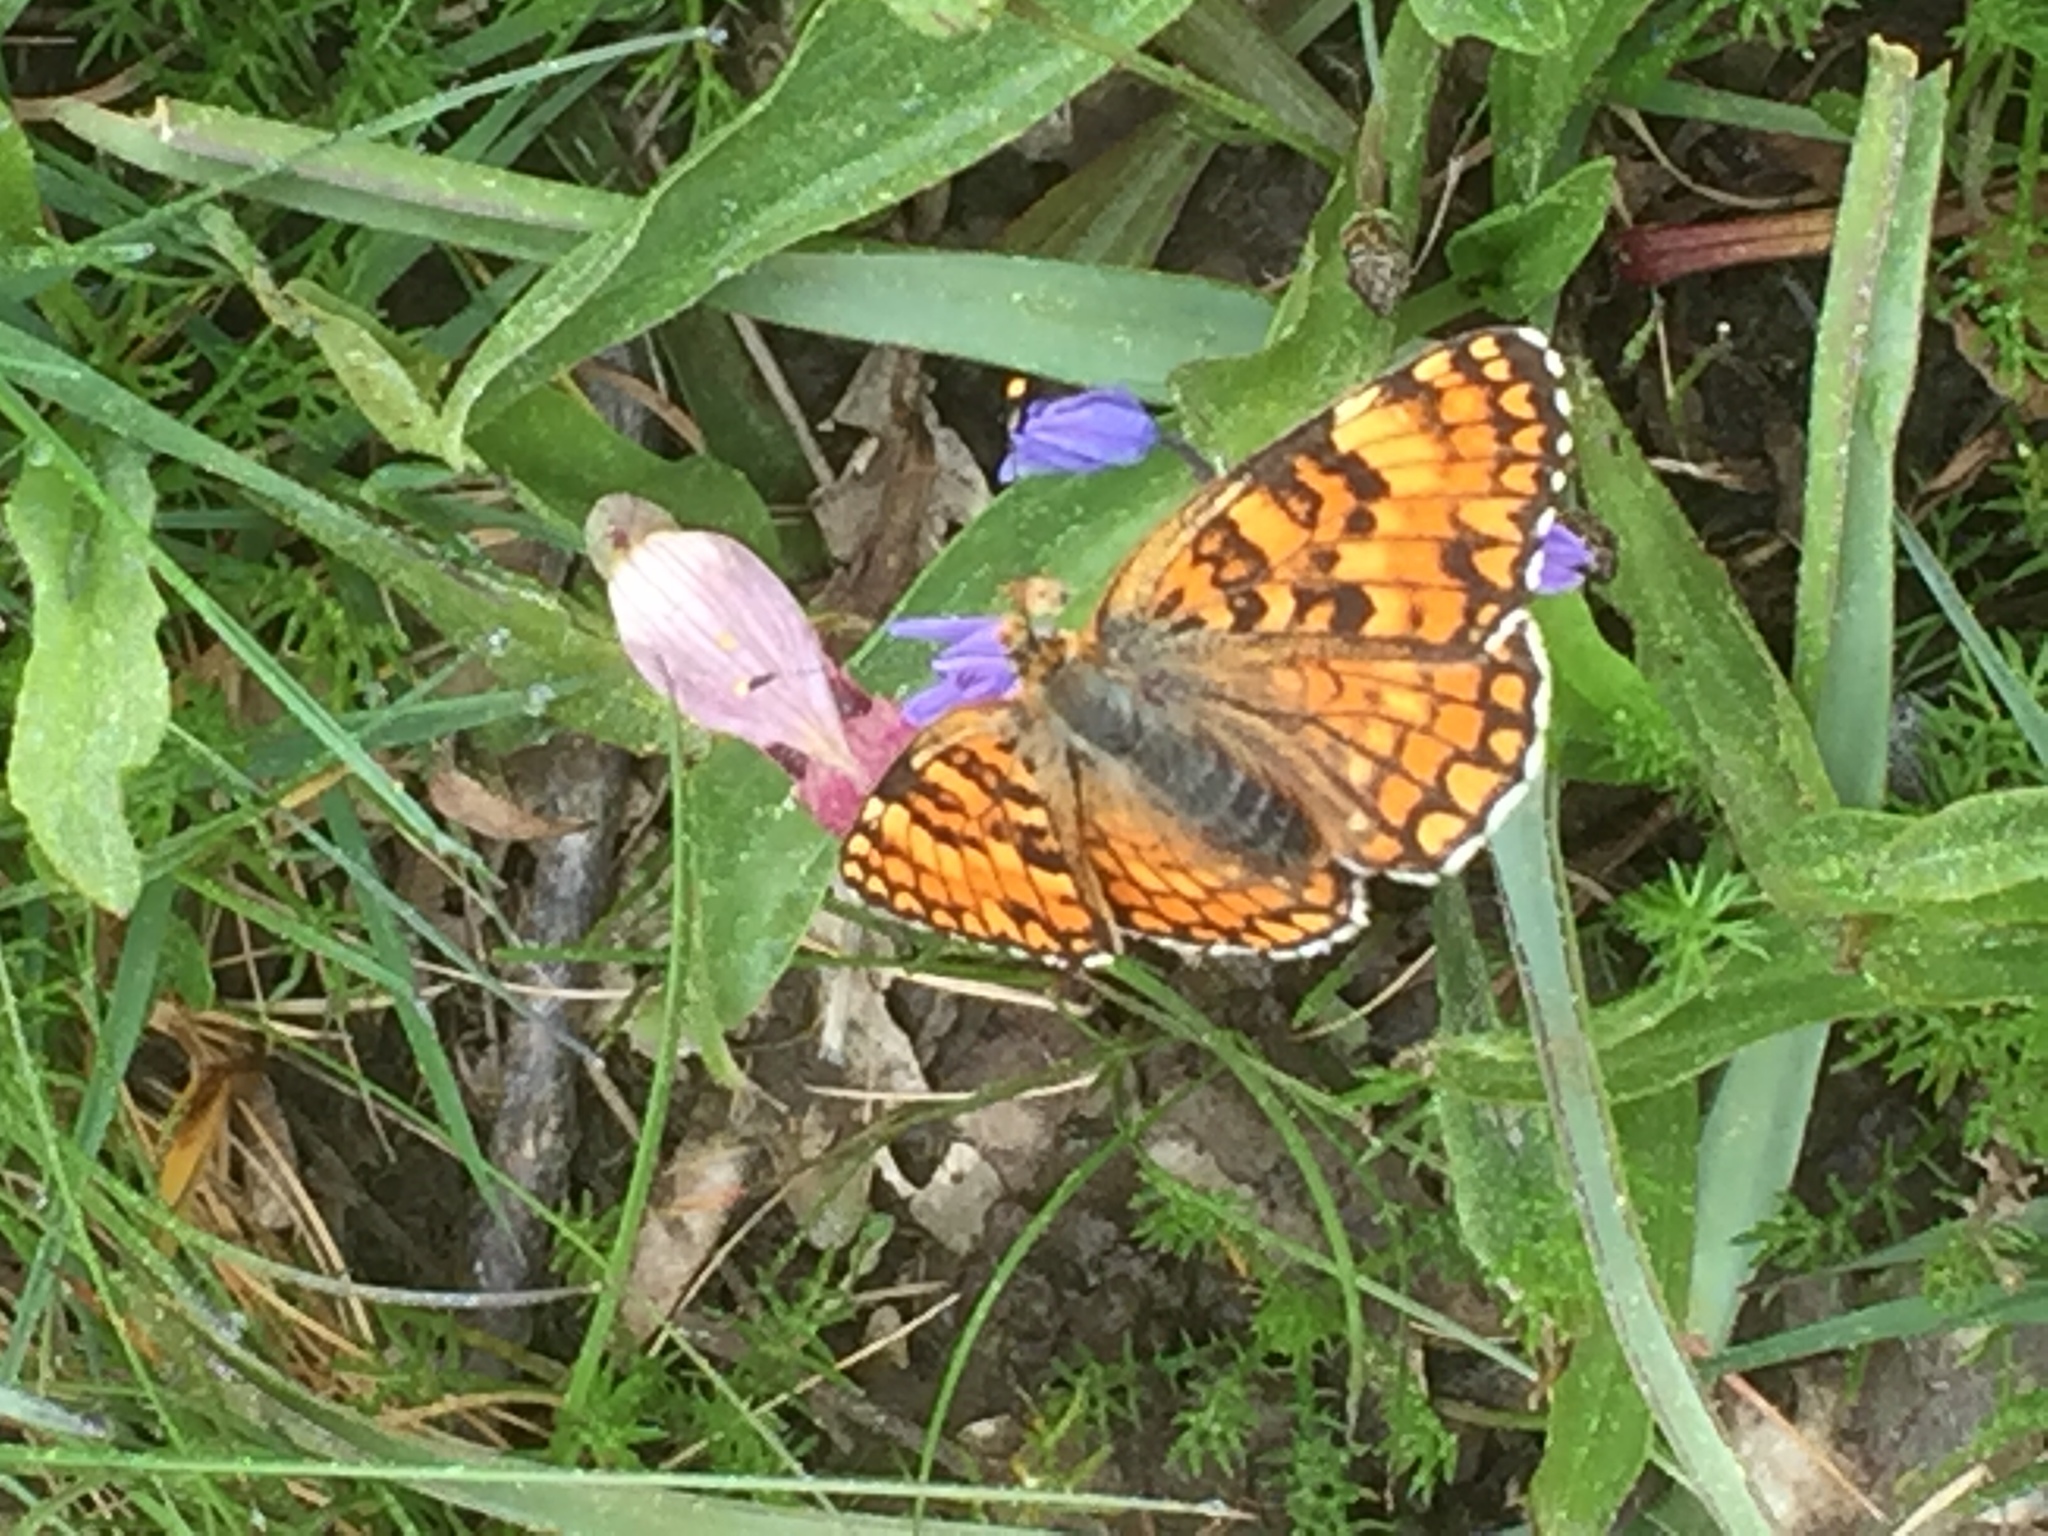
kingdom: Animalia
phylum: Arthropoda
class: Insecta
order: Lepidoptera
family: Nymphalidae
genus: Melitaea
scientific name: Melitaea phoebe
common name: Knapweed fritillary
